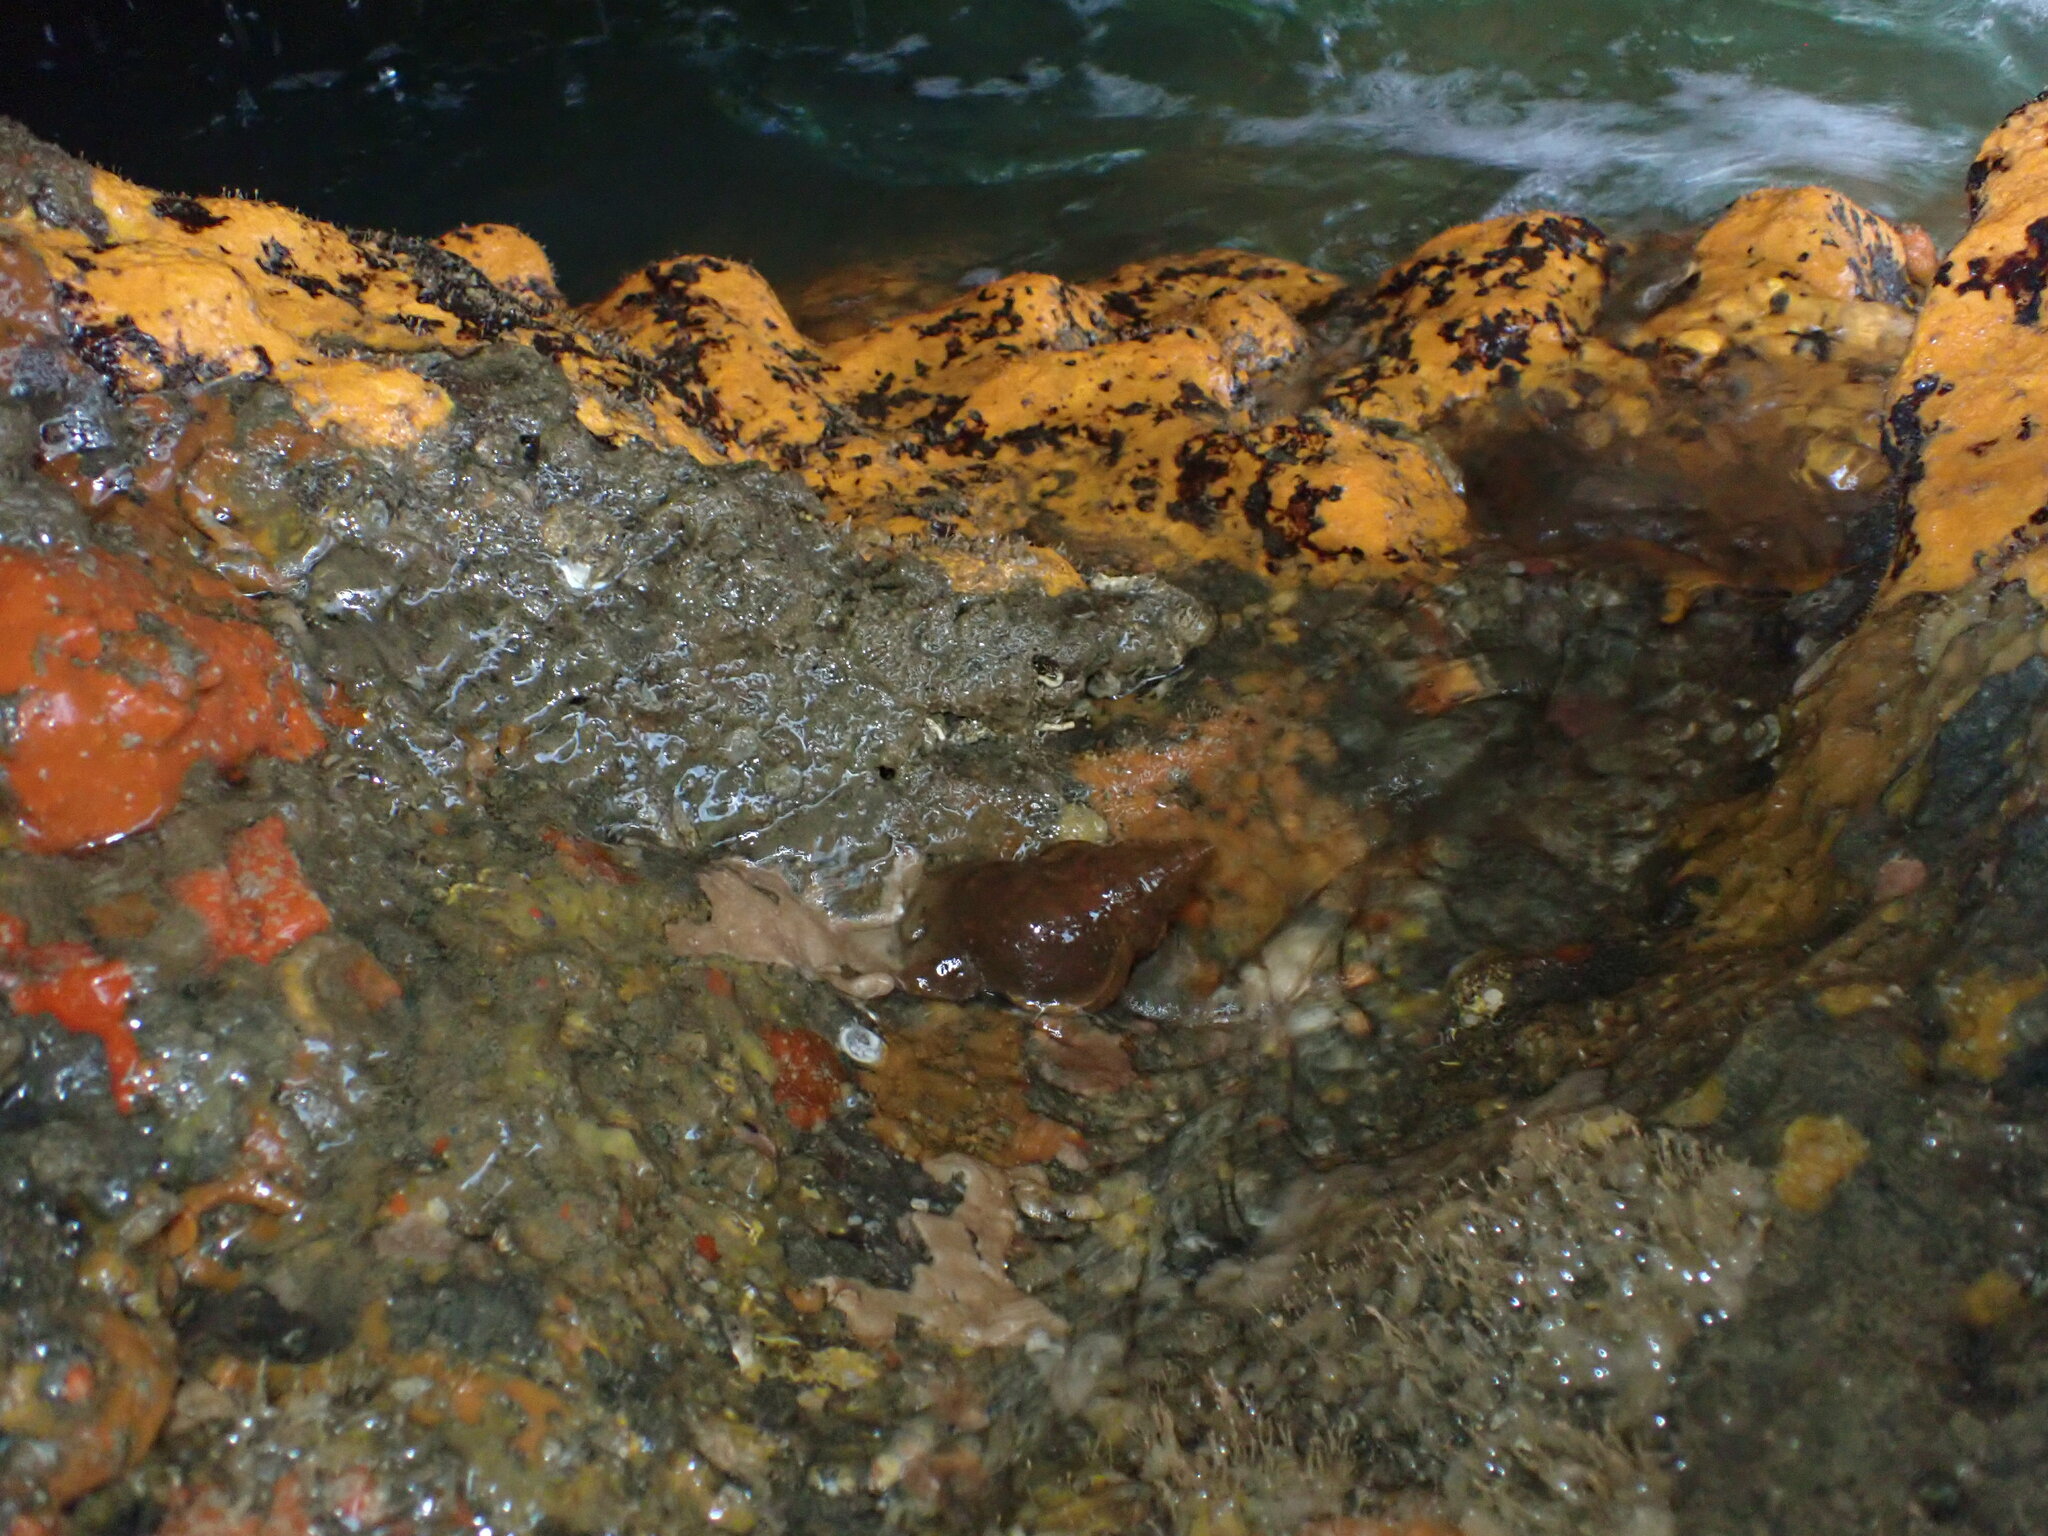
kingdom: Animalia
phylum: Mollusca
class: Gastropoda
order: Littorinimorpha
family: Ranellidae
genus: Ranella
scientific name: Ranella australasia
